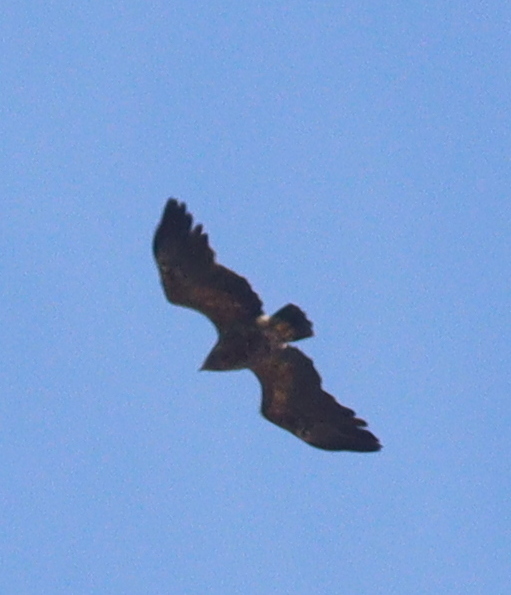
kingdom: Animalia
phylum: Chordata
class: Aves
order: Accipitriformes
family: Accipitridae
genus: Aquila
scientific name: Aquila pomarina
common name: Lesser spotted eagle
